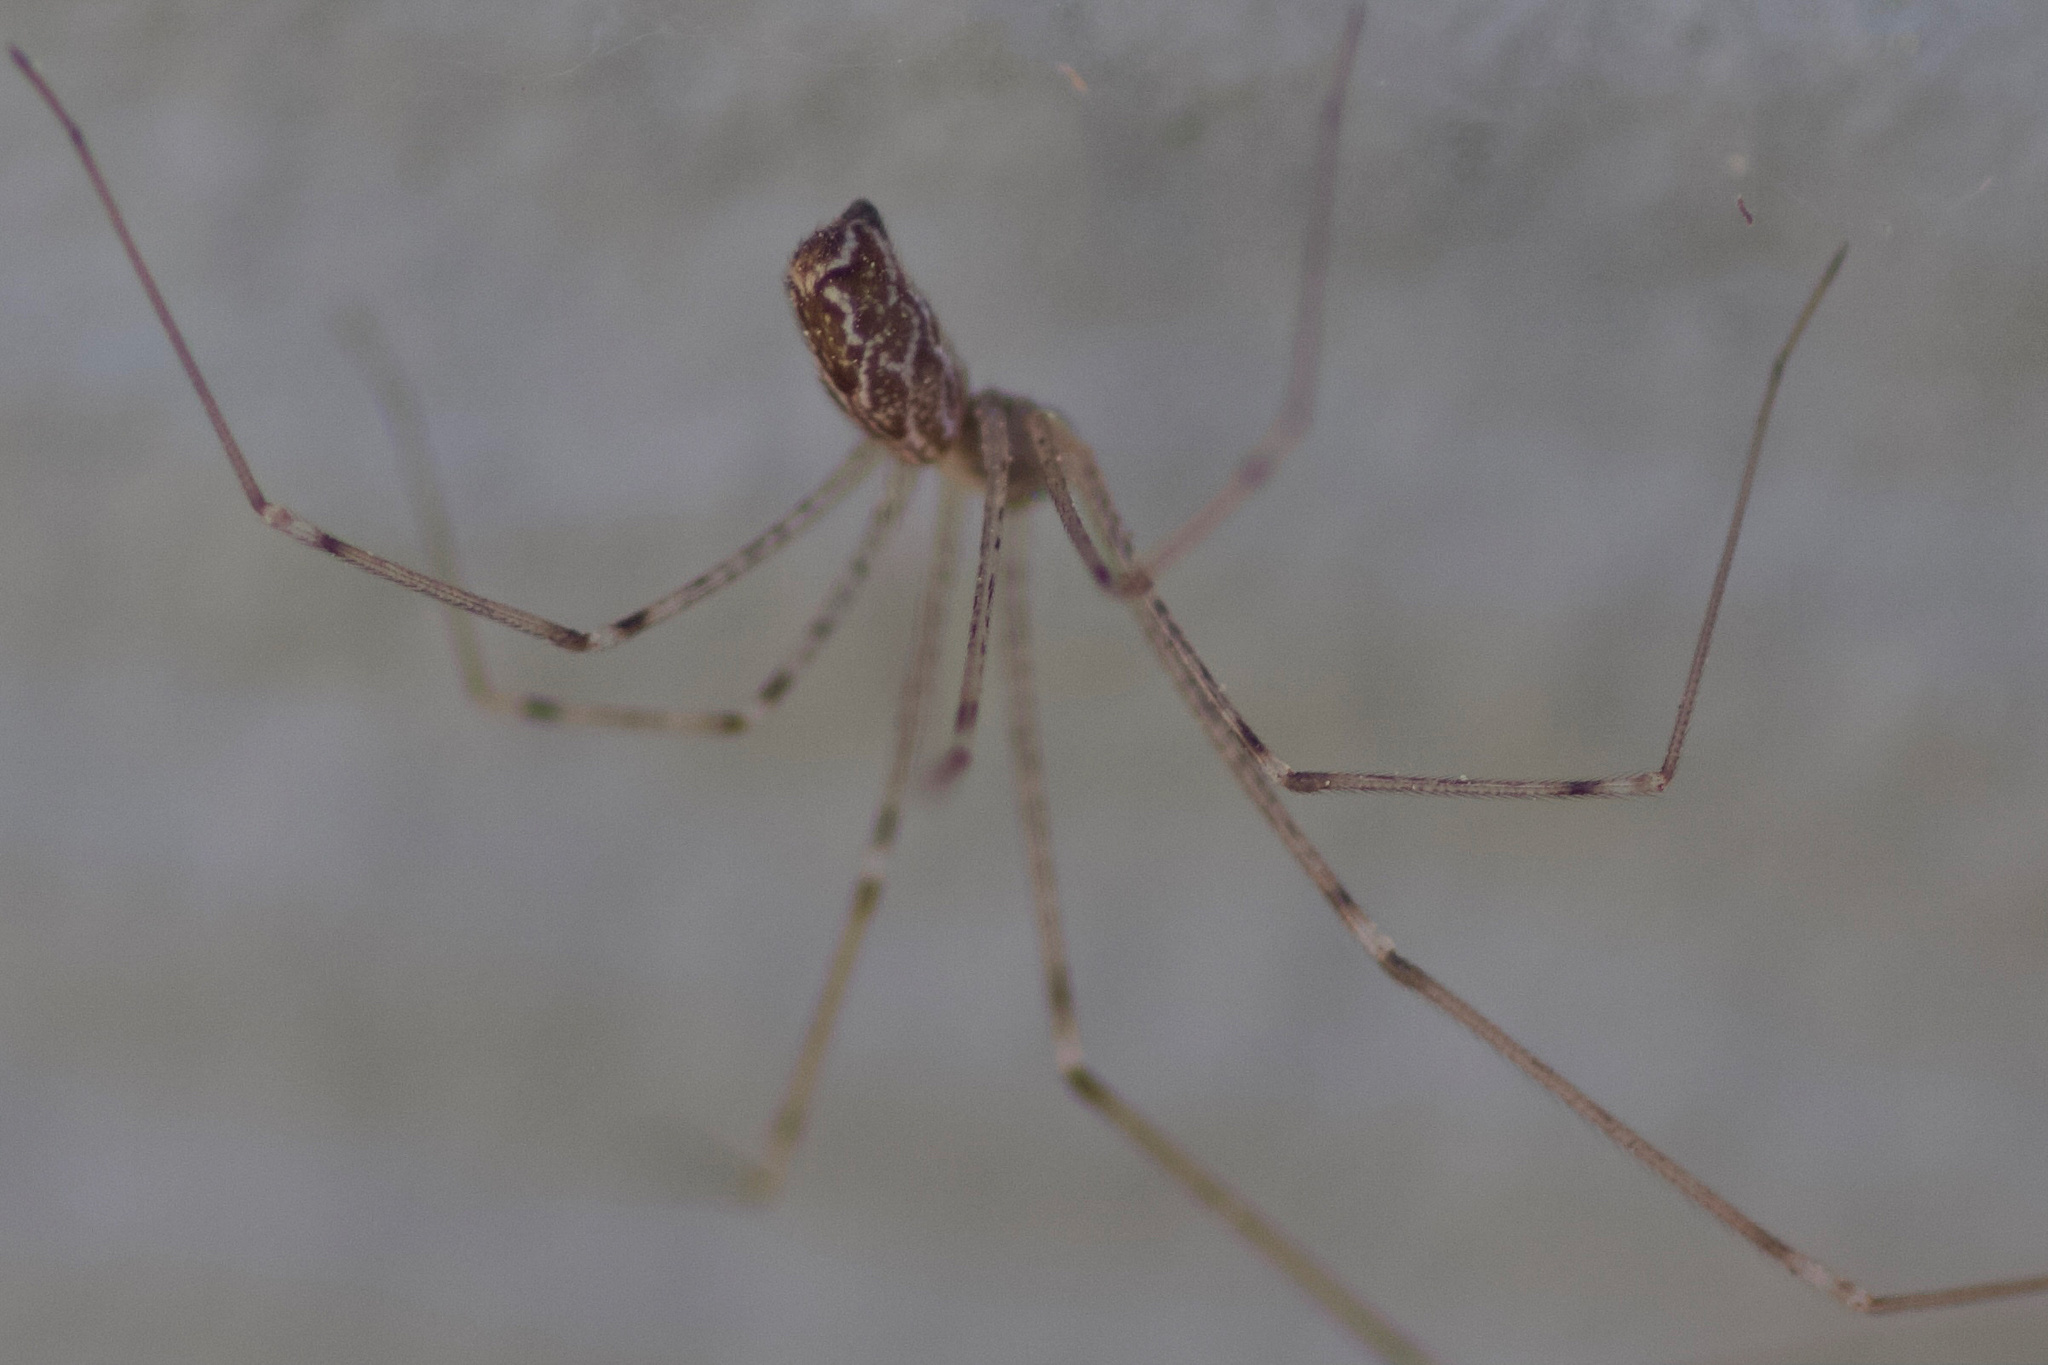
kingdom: Animalia
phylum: Arthropoda
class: Arachnida
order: Araneae
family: Pholcidae
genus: Holocnemus
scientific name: Holocnemus pluchei
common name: Marbled cellar spider
